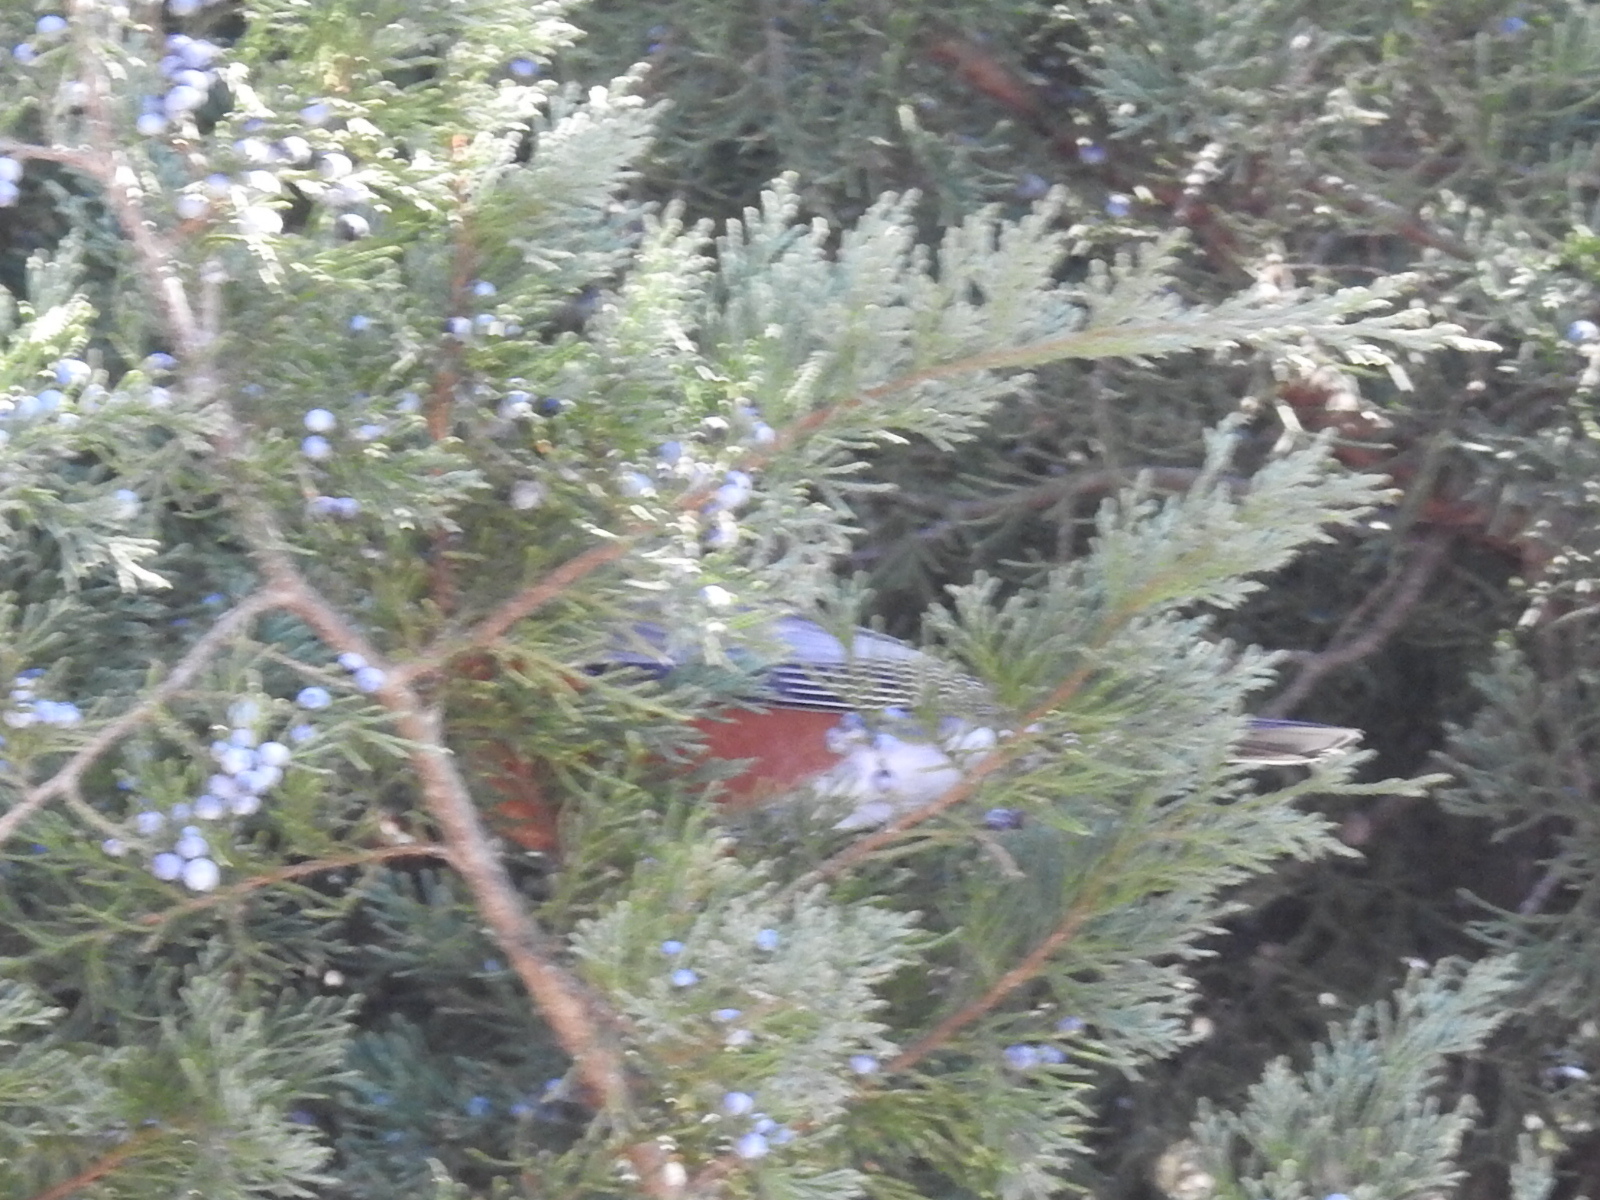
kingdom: Animalia
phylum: Chordata
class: Aves
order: Passeriformes
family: Turdidae
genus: Turdus
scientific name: Turdus migratorius
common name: American robin
